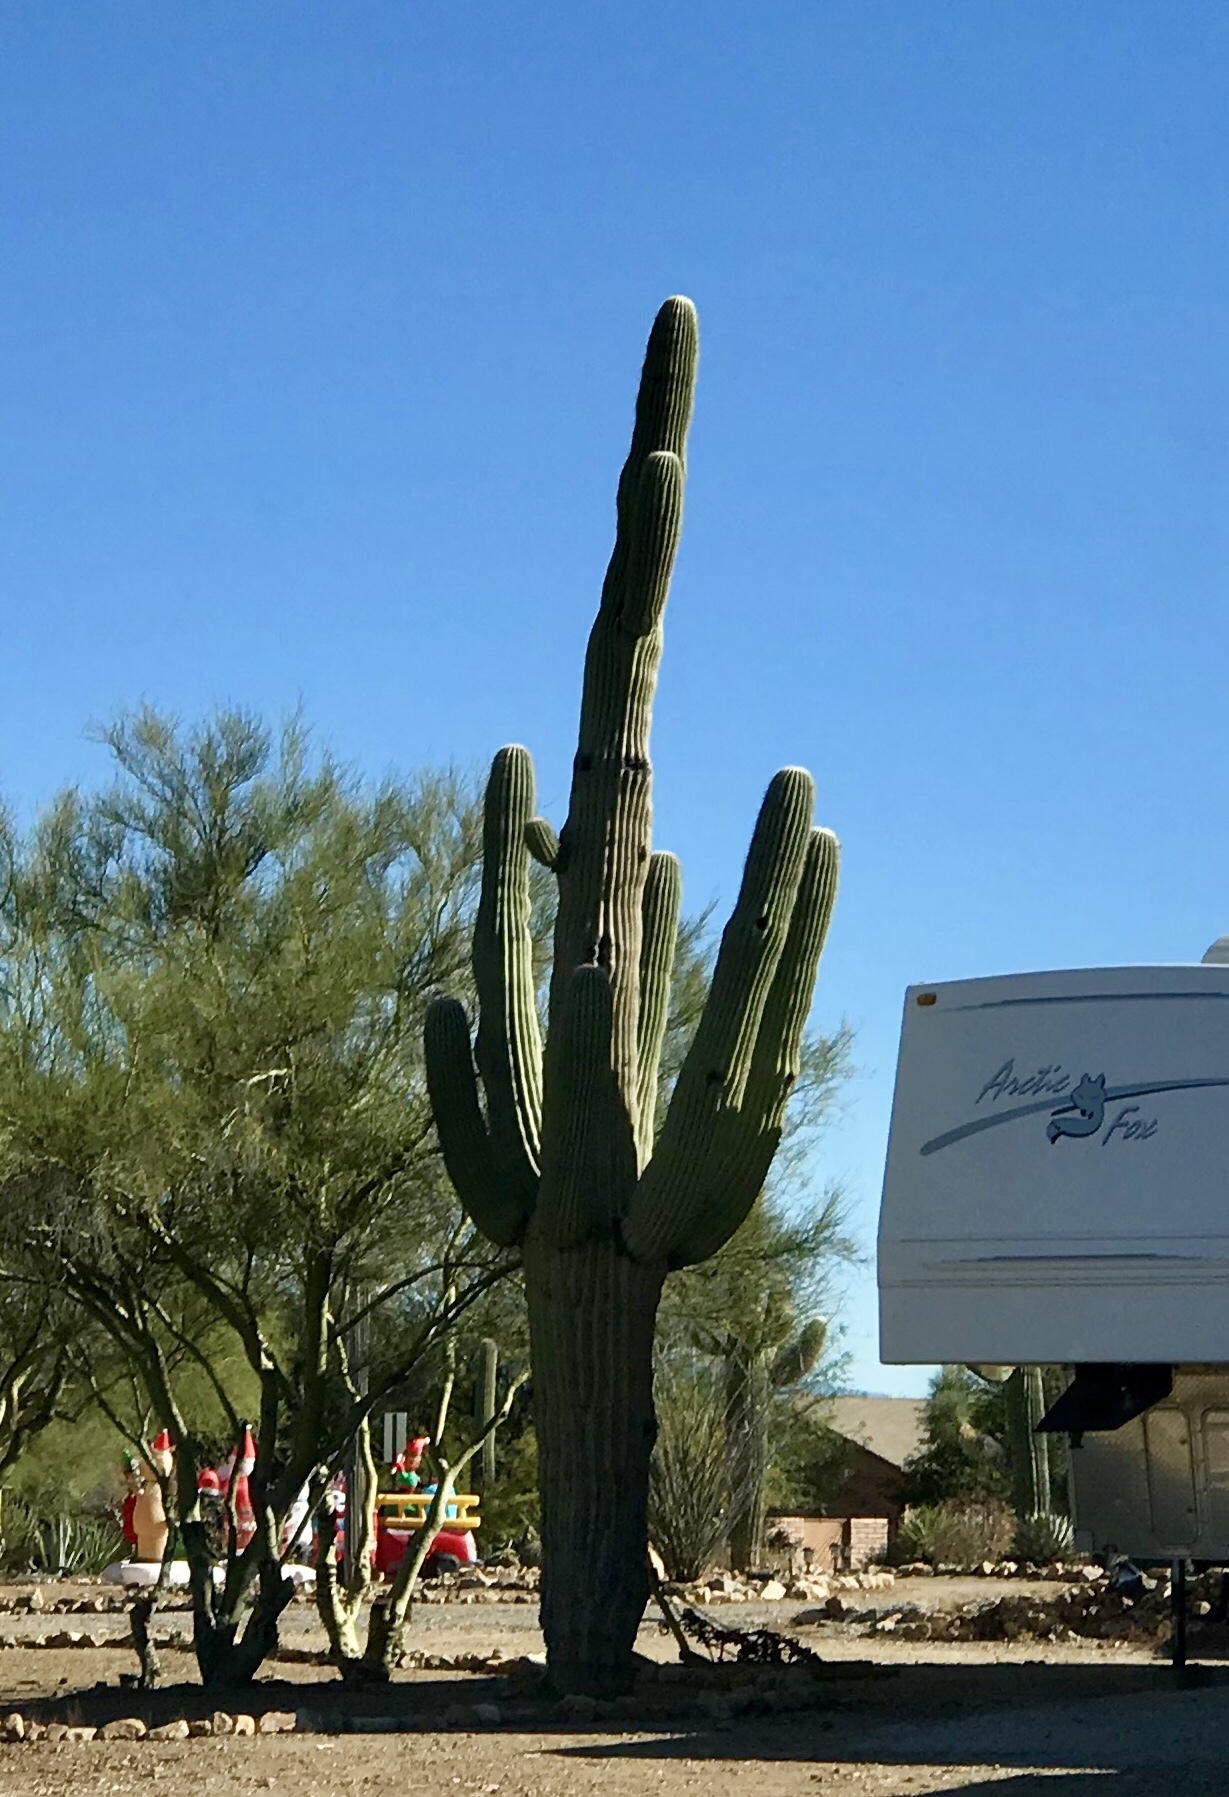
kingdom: Plantae
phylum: Tracheophyta
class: Magnoliopsida
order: Caryophyllales
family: Cactaceae
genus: Carnegiea
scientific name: Carnegiea gigantea
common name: Saguaro
